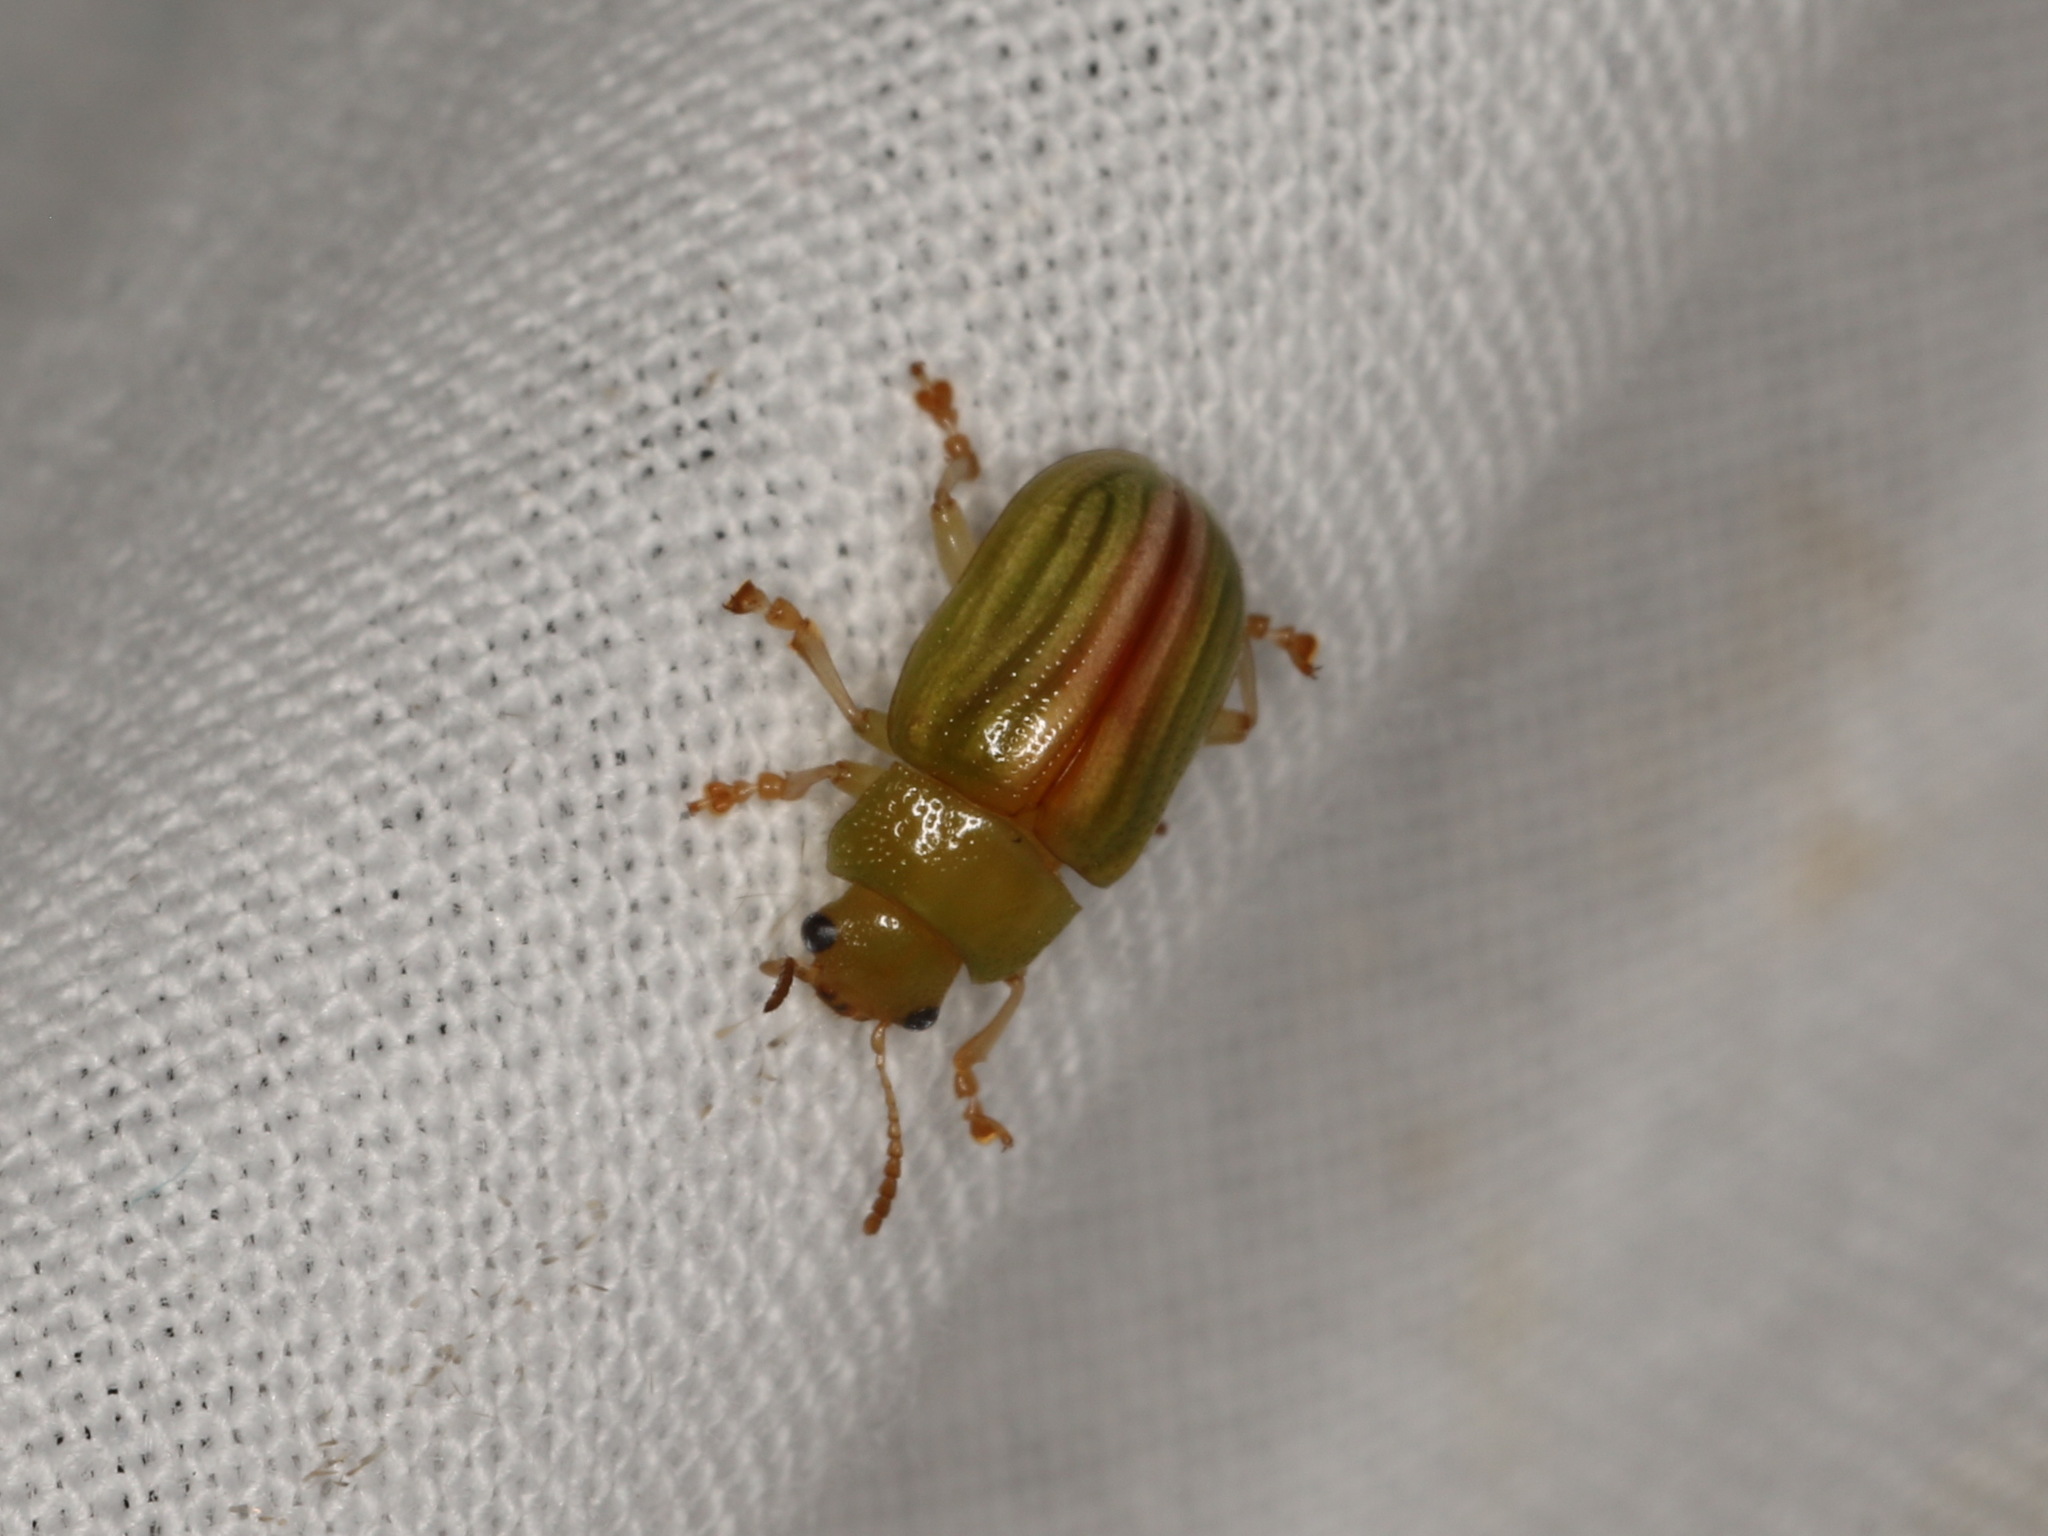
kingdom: Animalia
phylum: Arthropoda
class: Insecta
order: Coleoptera
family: Chrysomelidae
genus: Calomela
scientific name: Calomela intemerata
